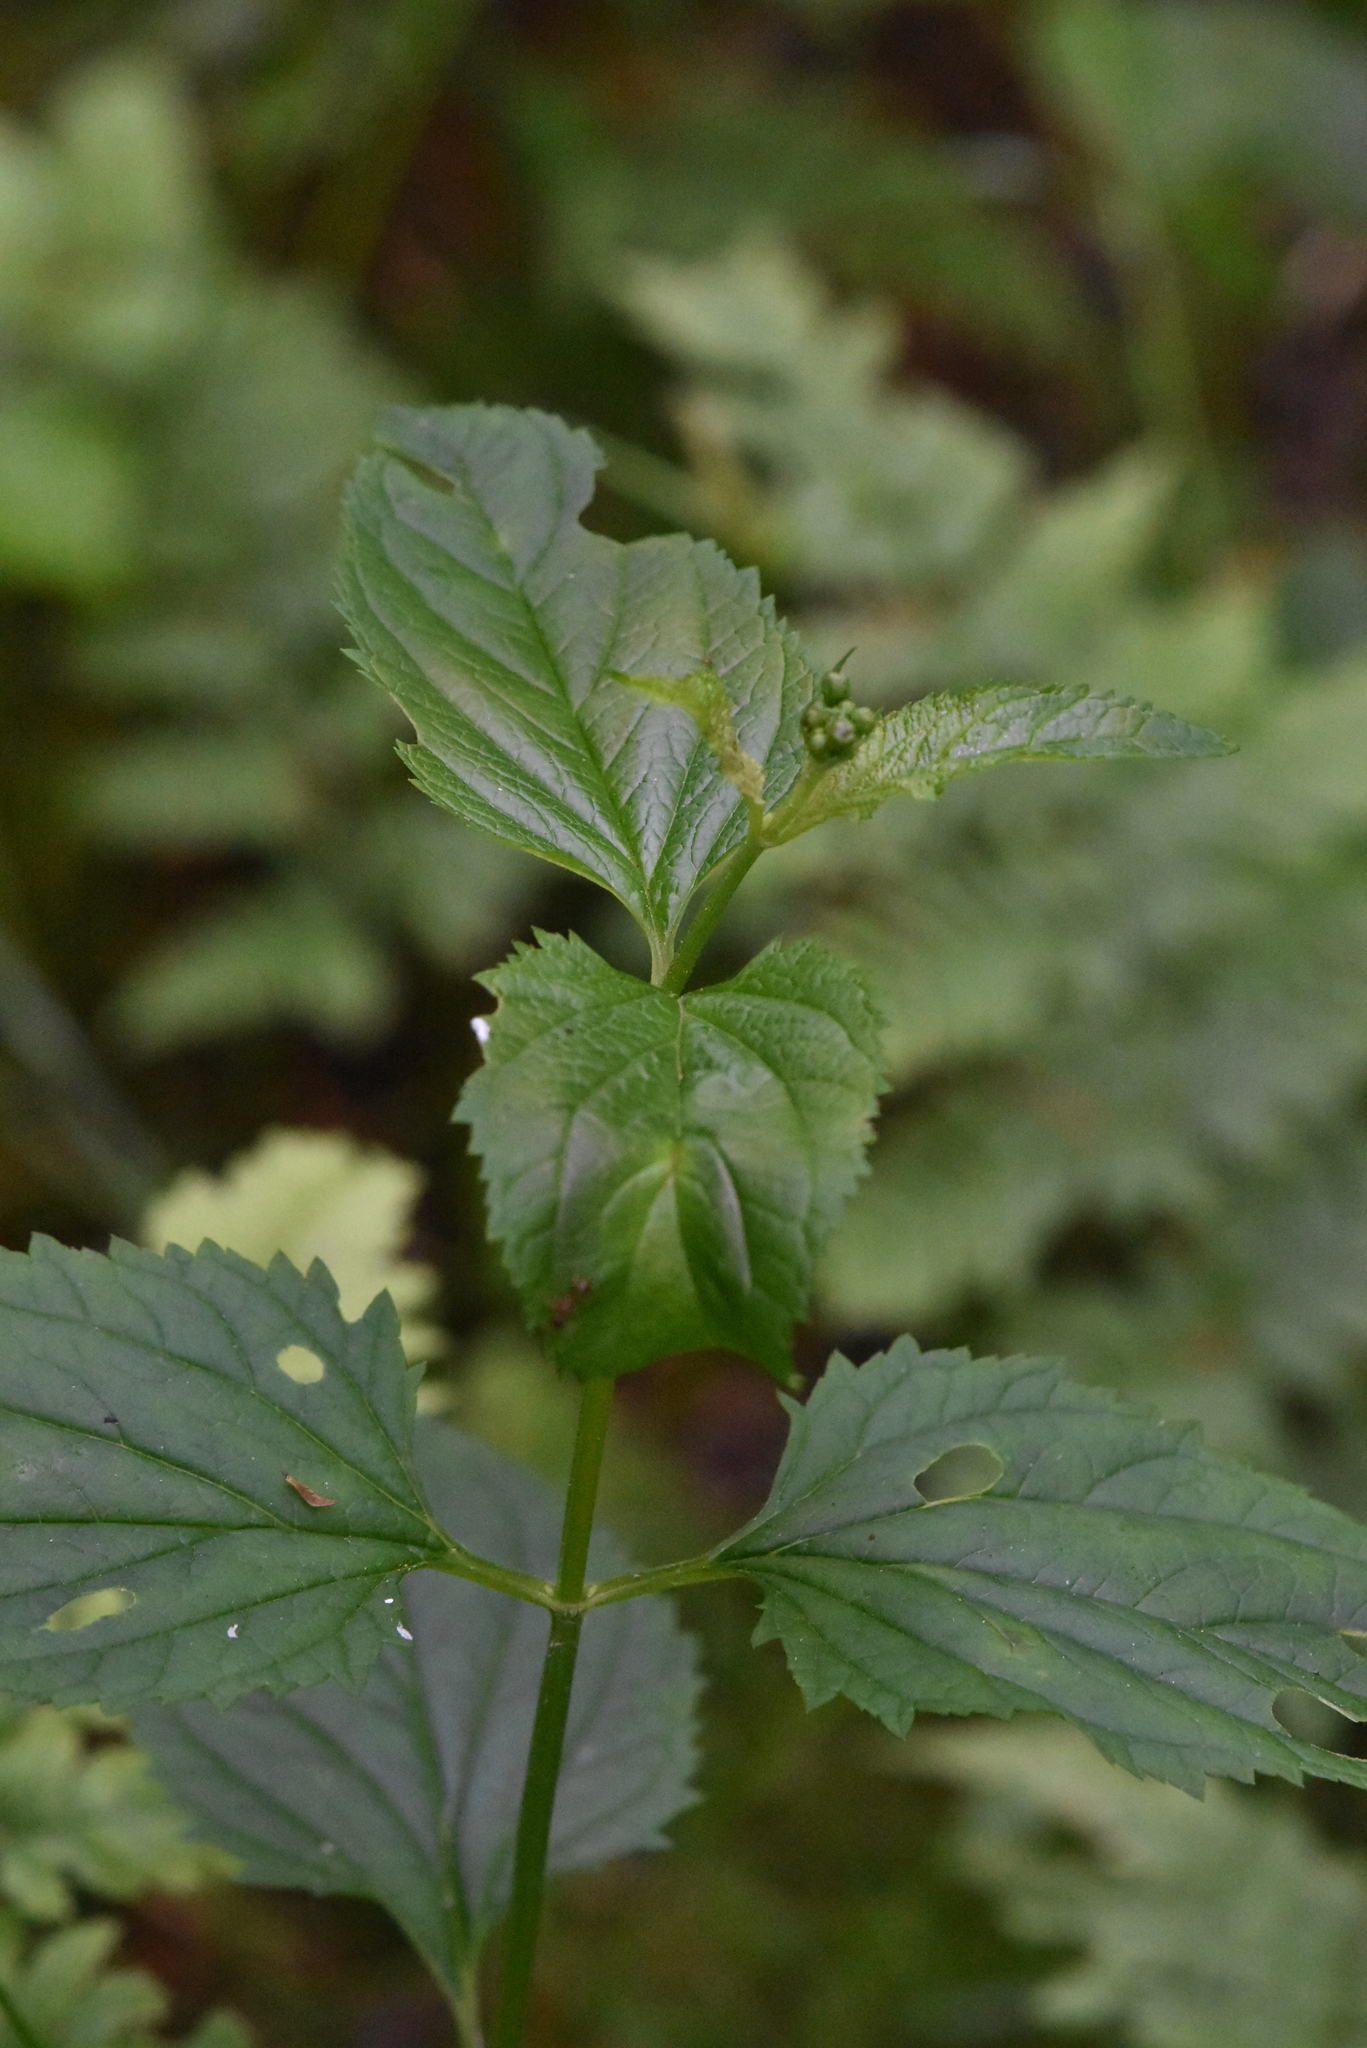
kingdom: Plantae
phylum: Tracheophyta
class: Magnoliopsida
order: Lamiales
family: Scrophulariaceae
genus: Scrophularia
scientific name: Scrophularia nodosa
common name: Common figwort
